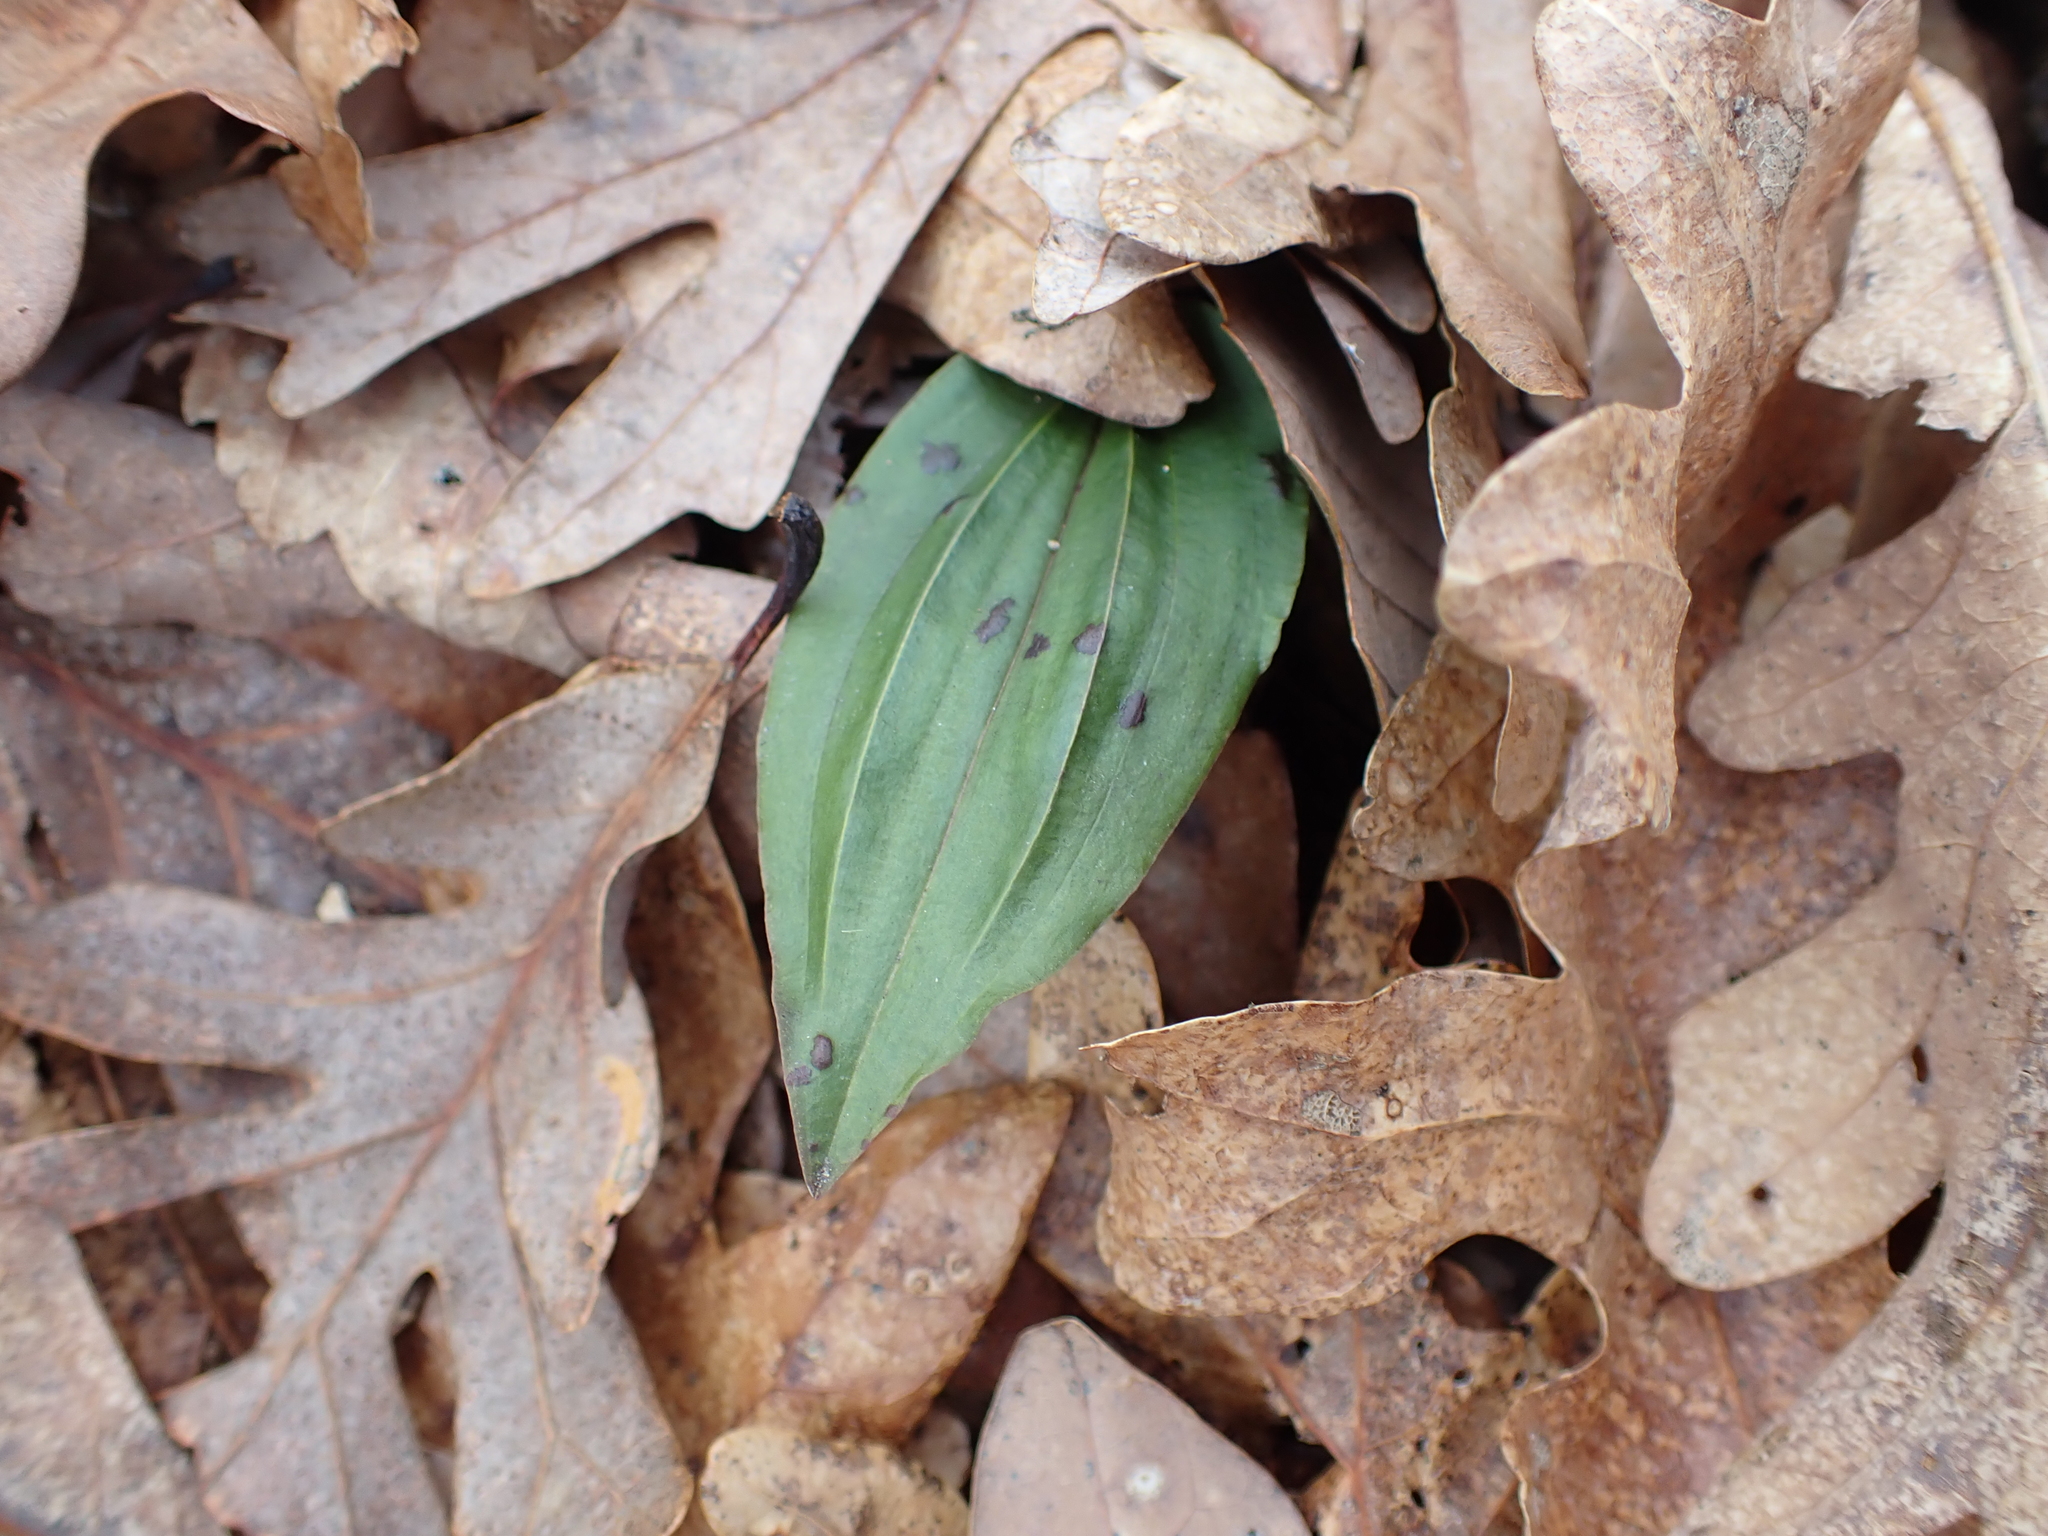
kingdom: Plantae
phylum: Tracheophyta
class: Liliopsida
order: Asparagales
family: Orchidaceae
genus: Tipularia
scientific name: Tipularia discolor
